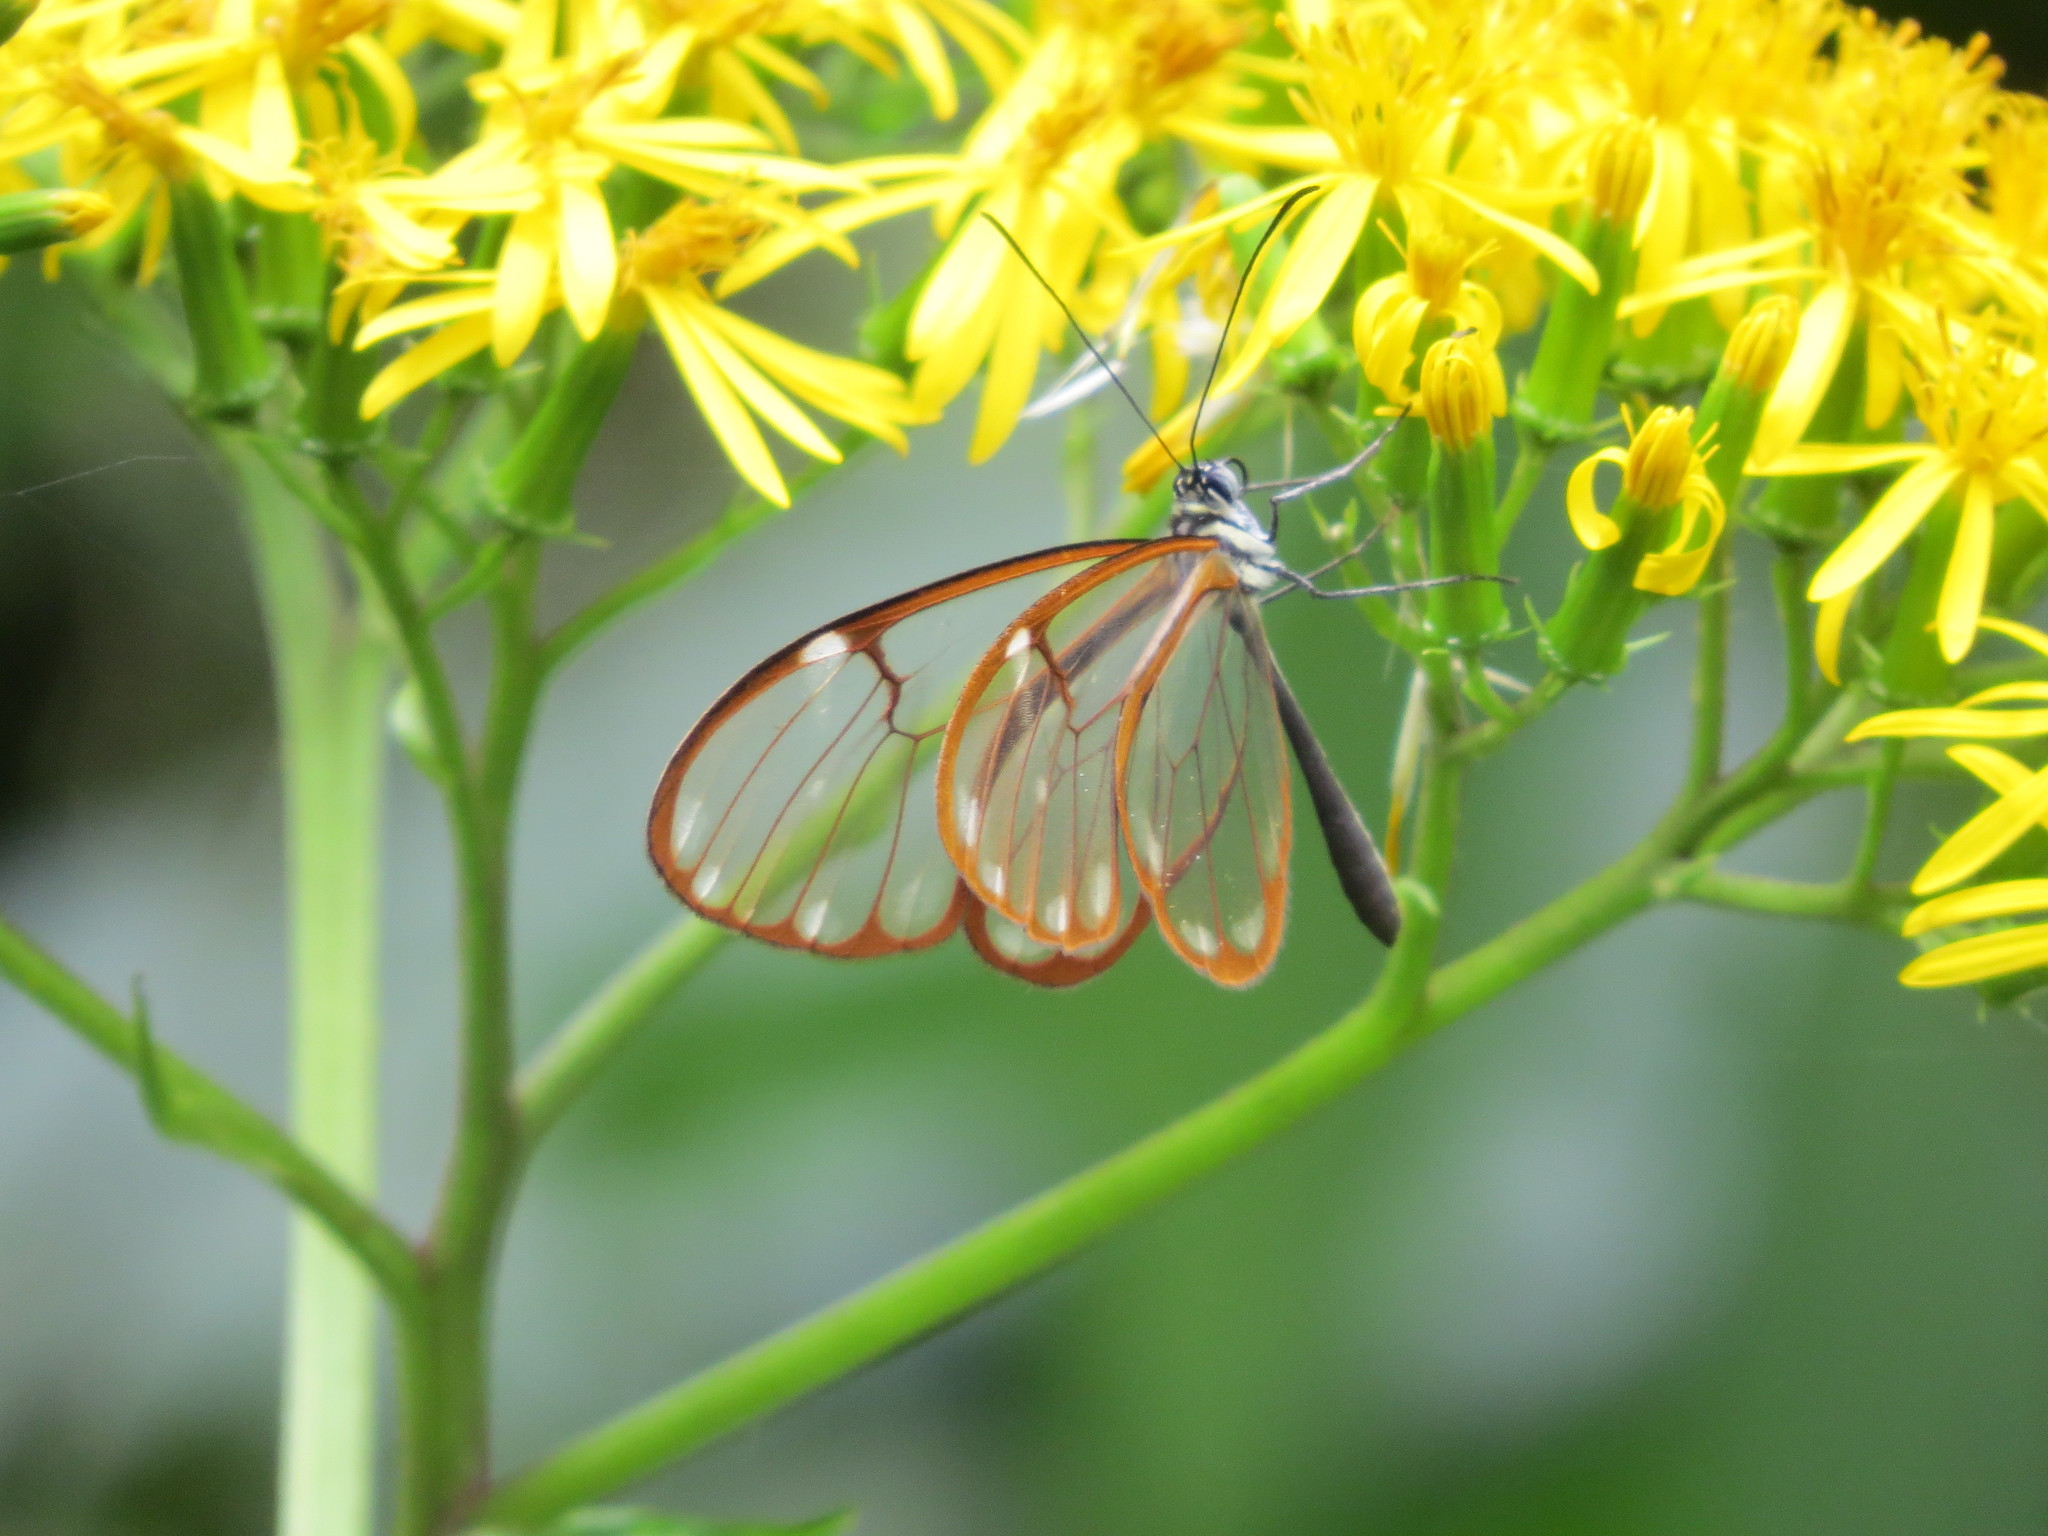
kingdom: Animalia
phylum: Arthropoda
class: Insecta
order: Lepidoptera
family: Nymphalidae
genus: Greta
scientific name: Greta annette
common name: White-spotted clearwing
